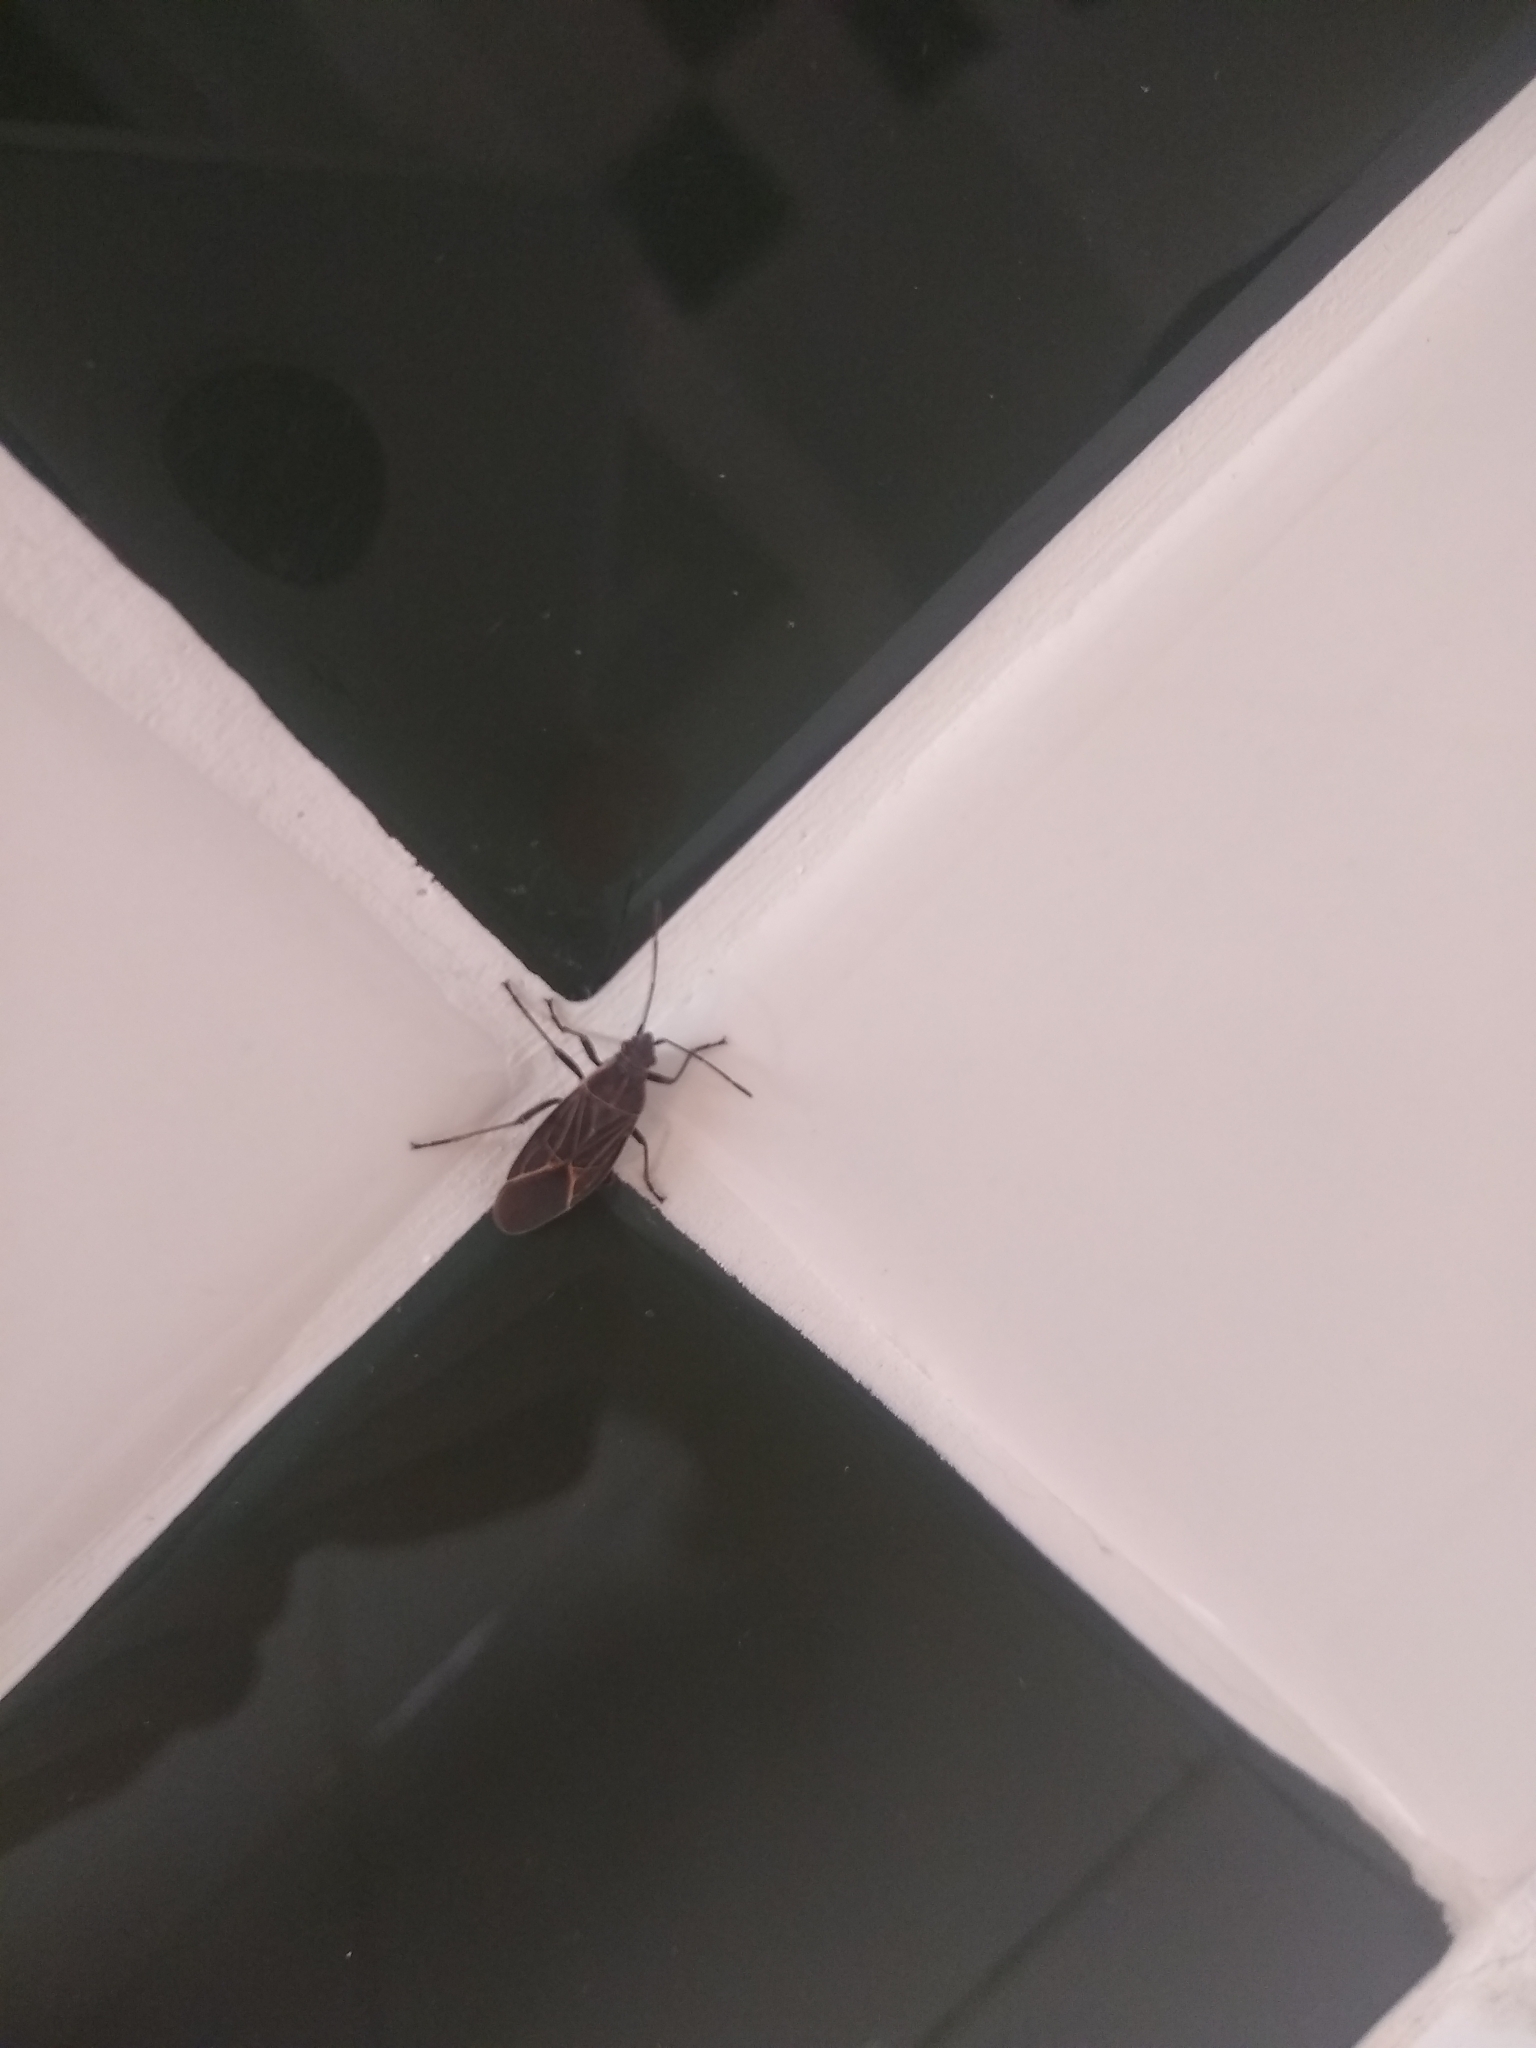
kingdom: Animalia
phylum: Arthropoda
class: Insecta
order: Hemiptera
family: Rhopalidae
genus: Boisea
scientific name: Boisea rubrolineata
